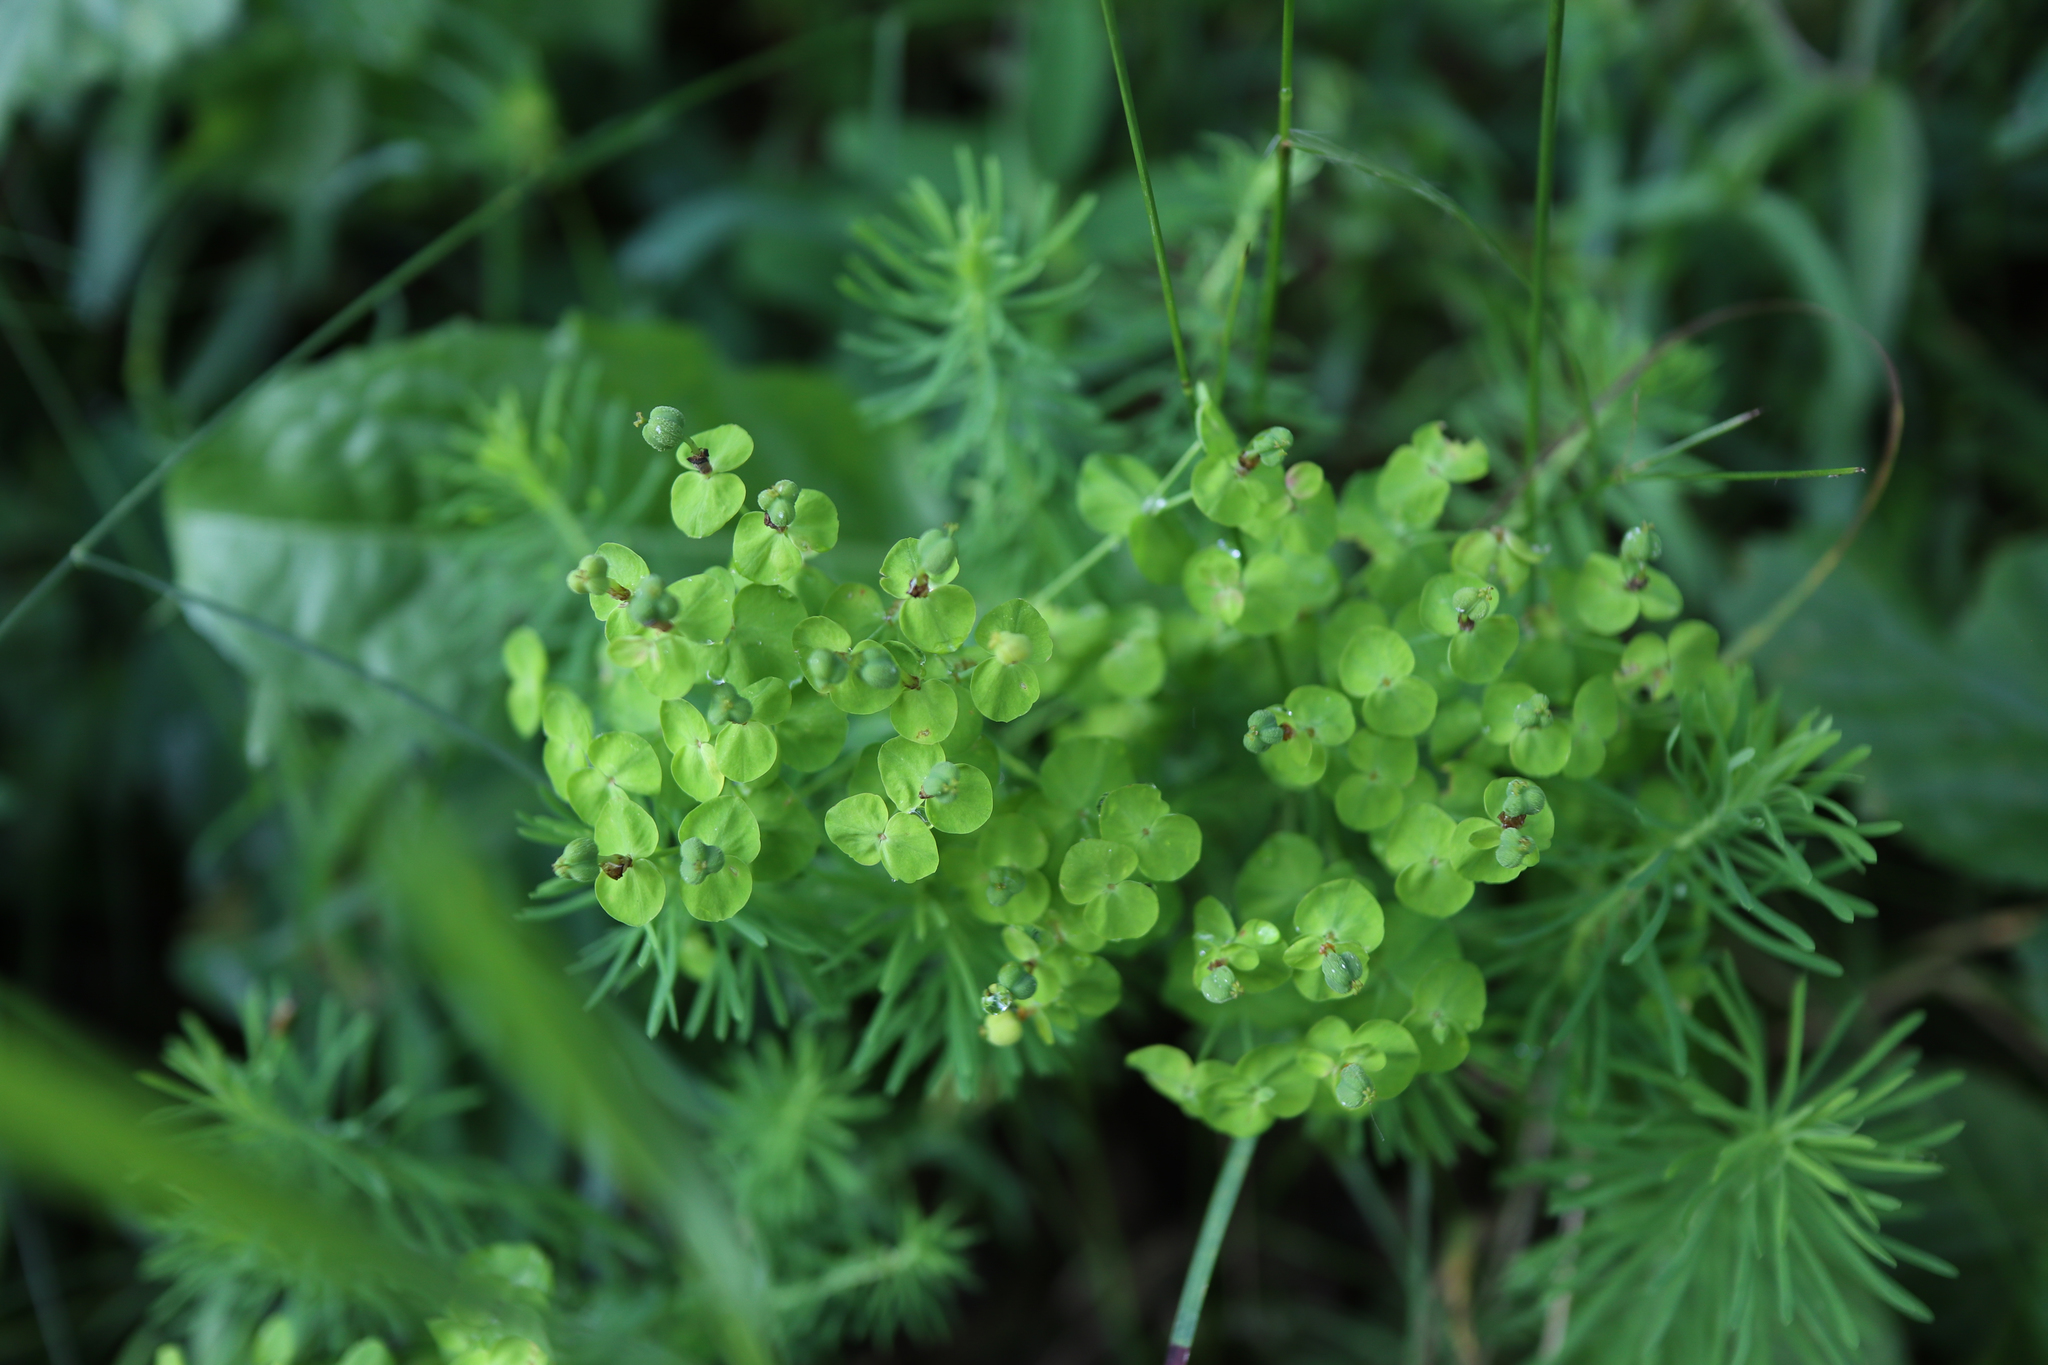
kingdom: Plantae
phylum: Tracheophyta
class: Magnoliopsida
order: Malpighiales
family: Euphorbiaceae
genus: Euphorbia
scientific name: Euphorbia cyparissias
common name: Cypress spurge
